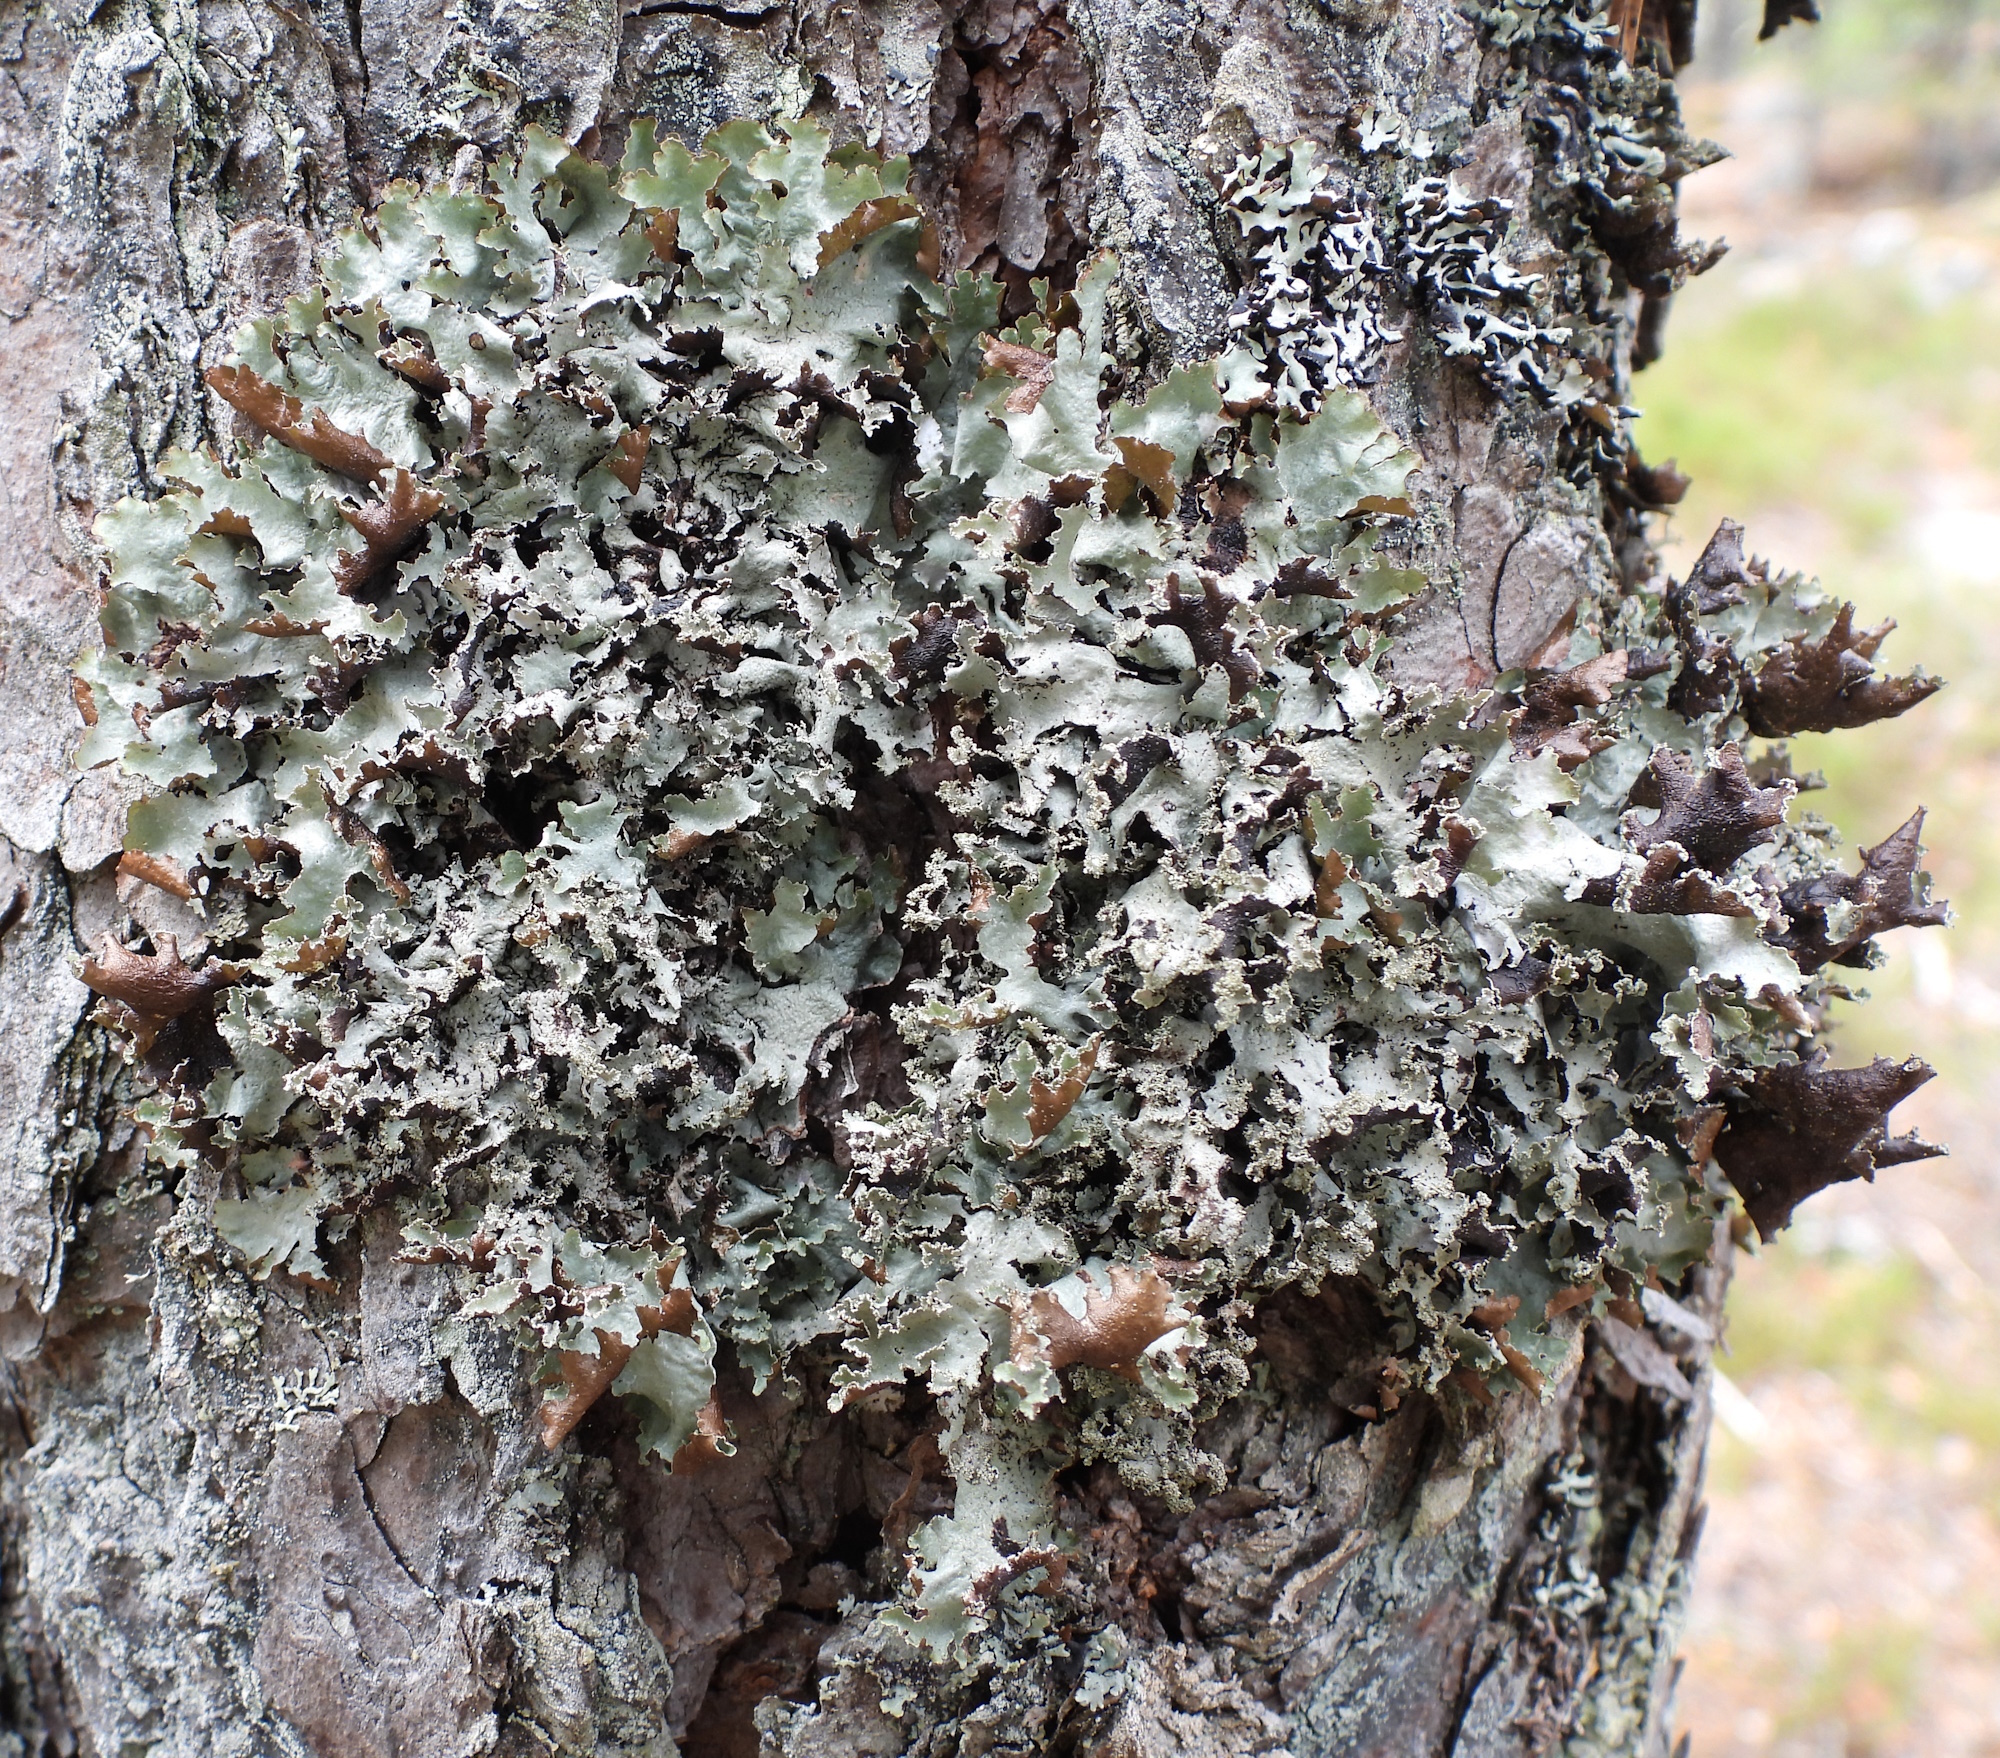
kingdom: Fungi
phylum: Ascomycota
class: Lecanoromycetes
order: Lecanorales
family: Parmeliaceae
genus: Platismatia
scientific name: Platismatia glauca
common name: Varied rag lichen
